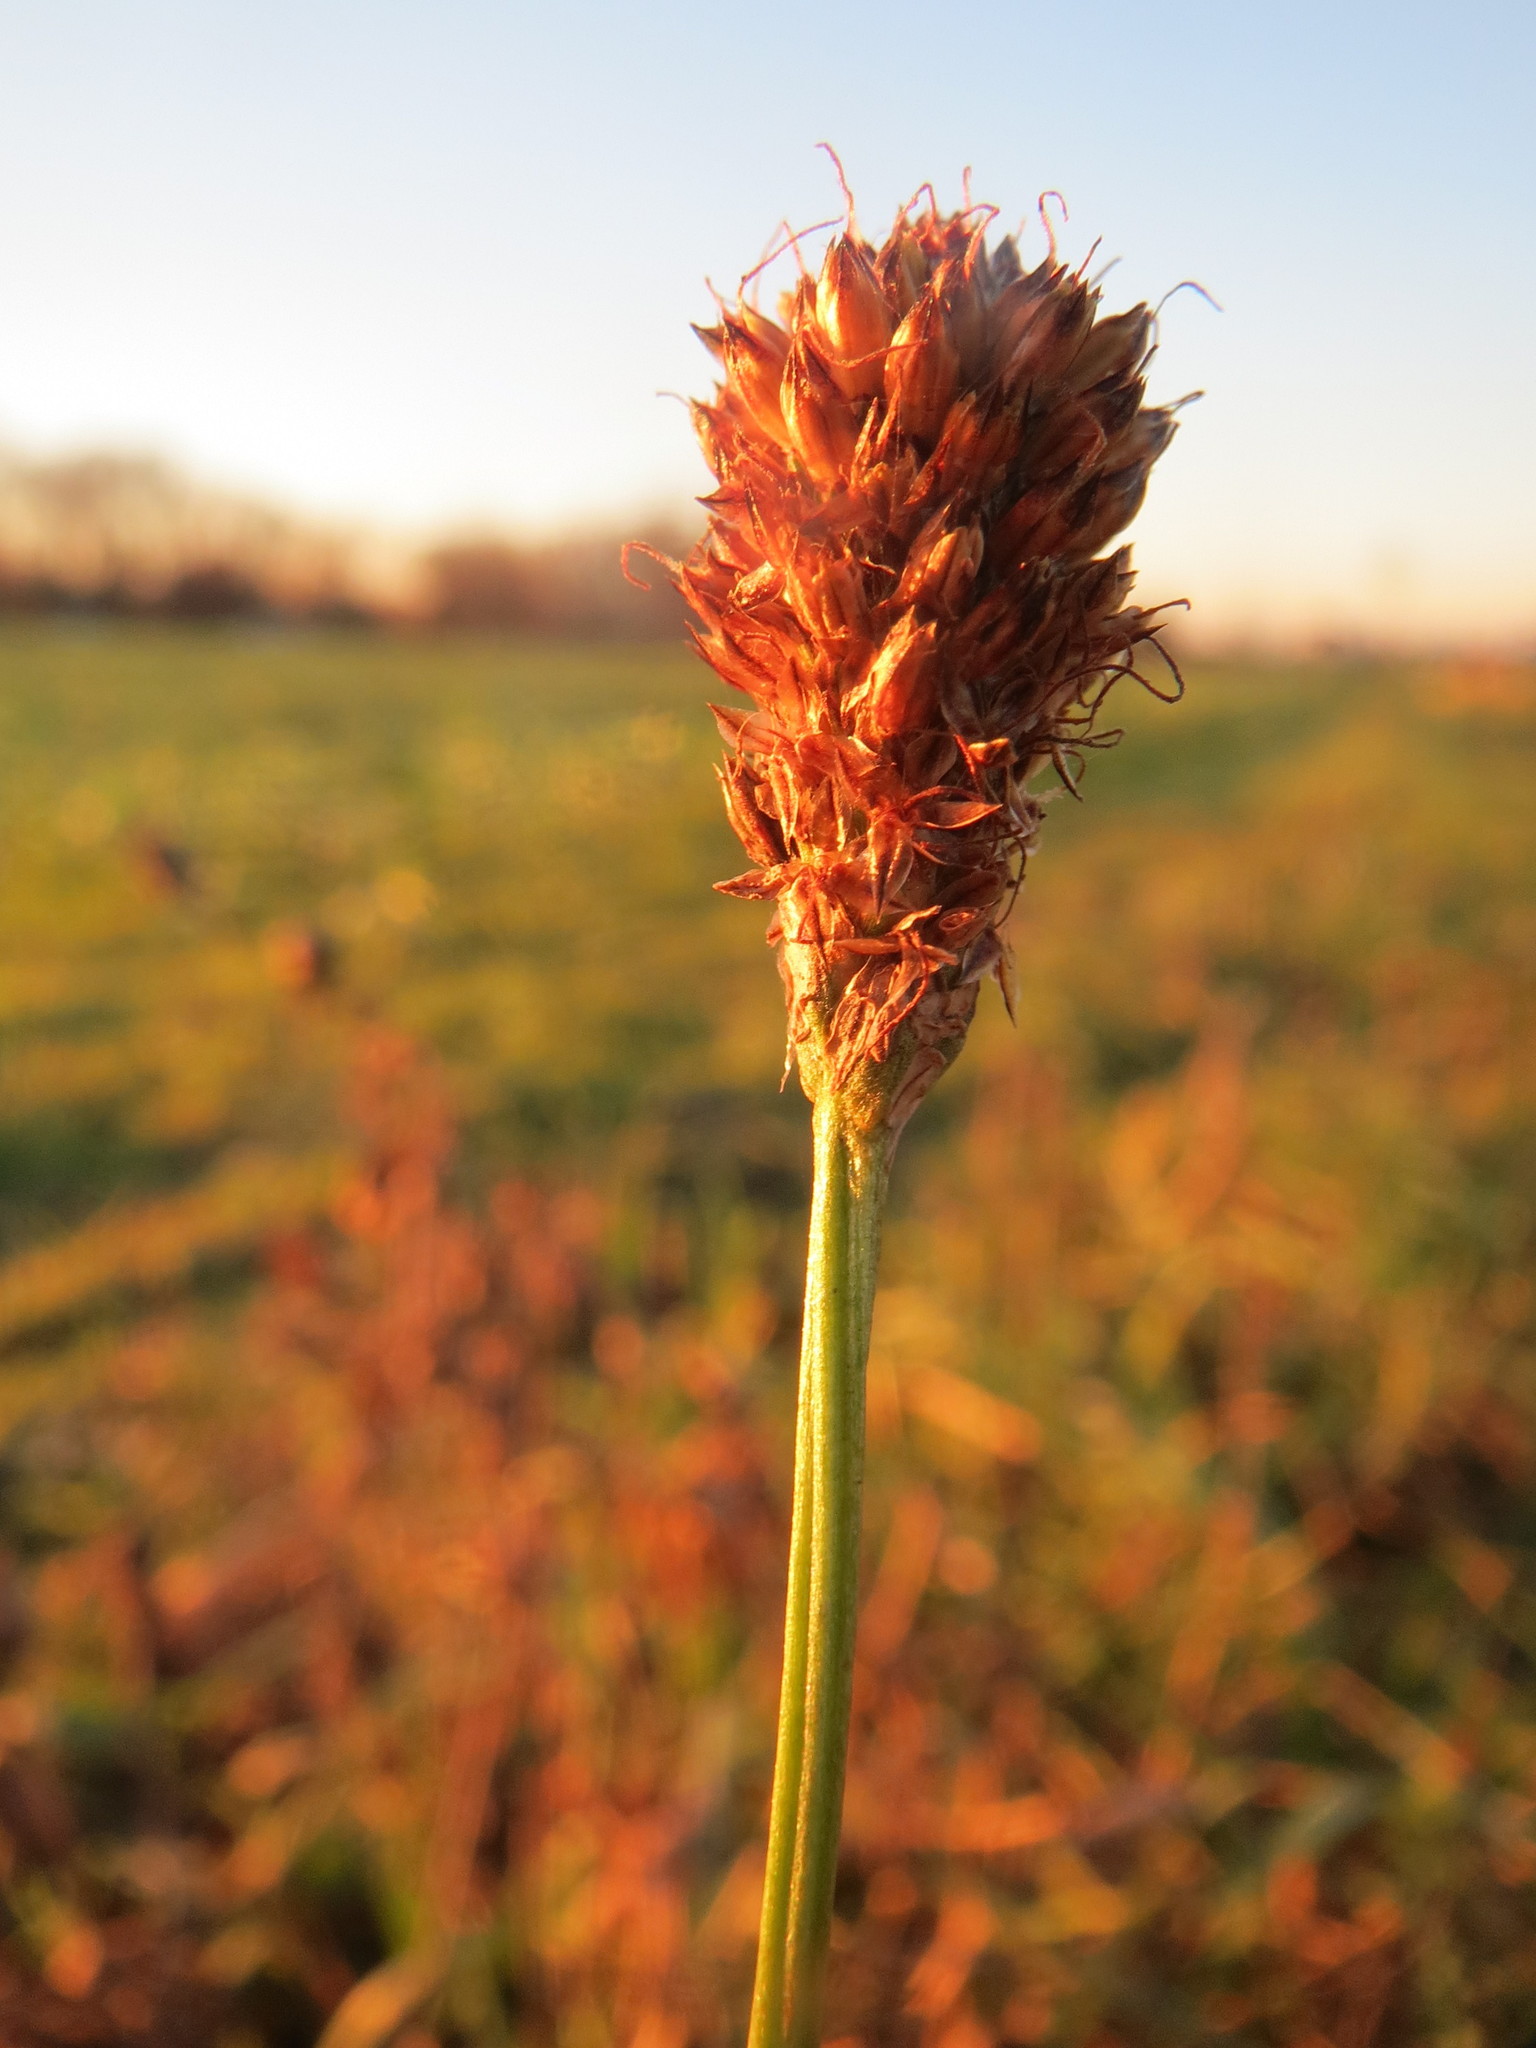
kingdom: Plantae
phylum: Tracheophyta
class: Magnoliopsida
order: Lamiales
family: Plantaginaceae
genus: Plantago
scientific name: Plantago lanceolata
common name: Ribwort plantain
